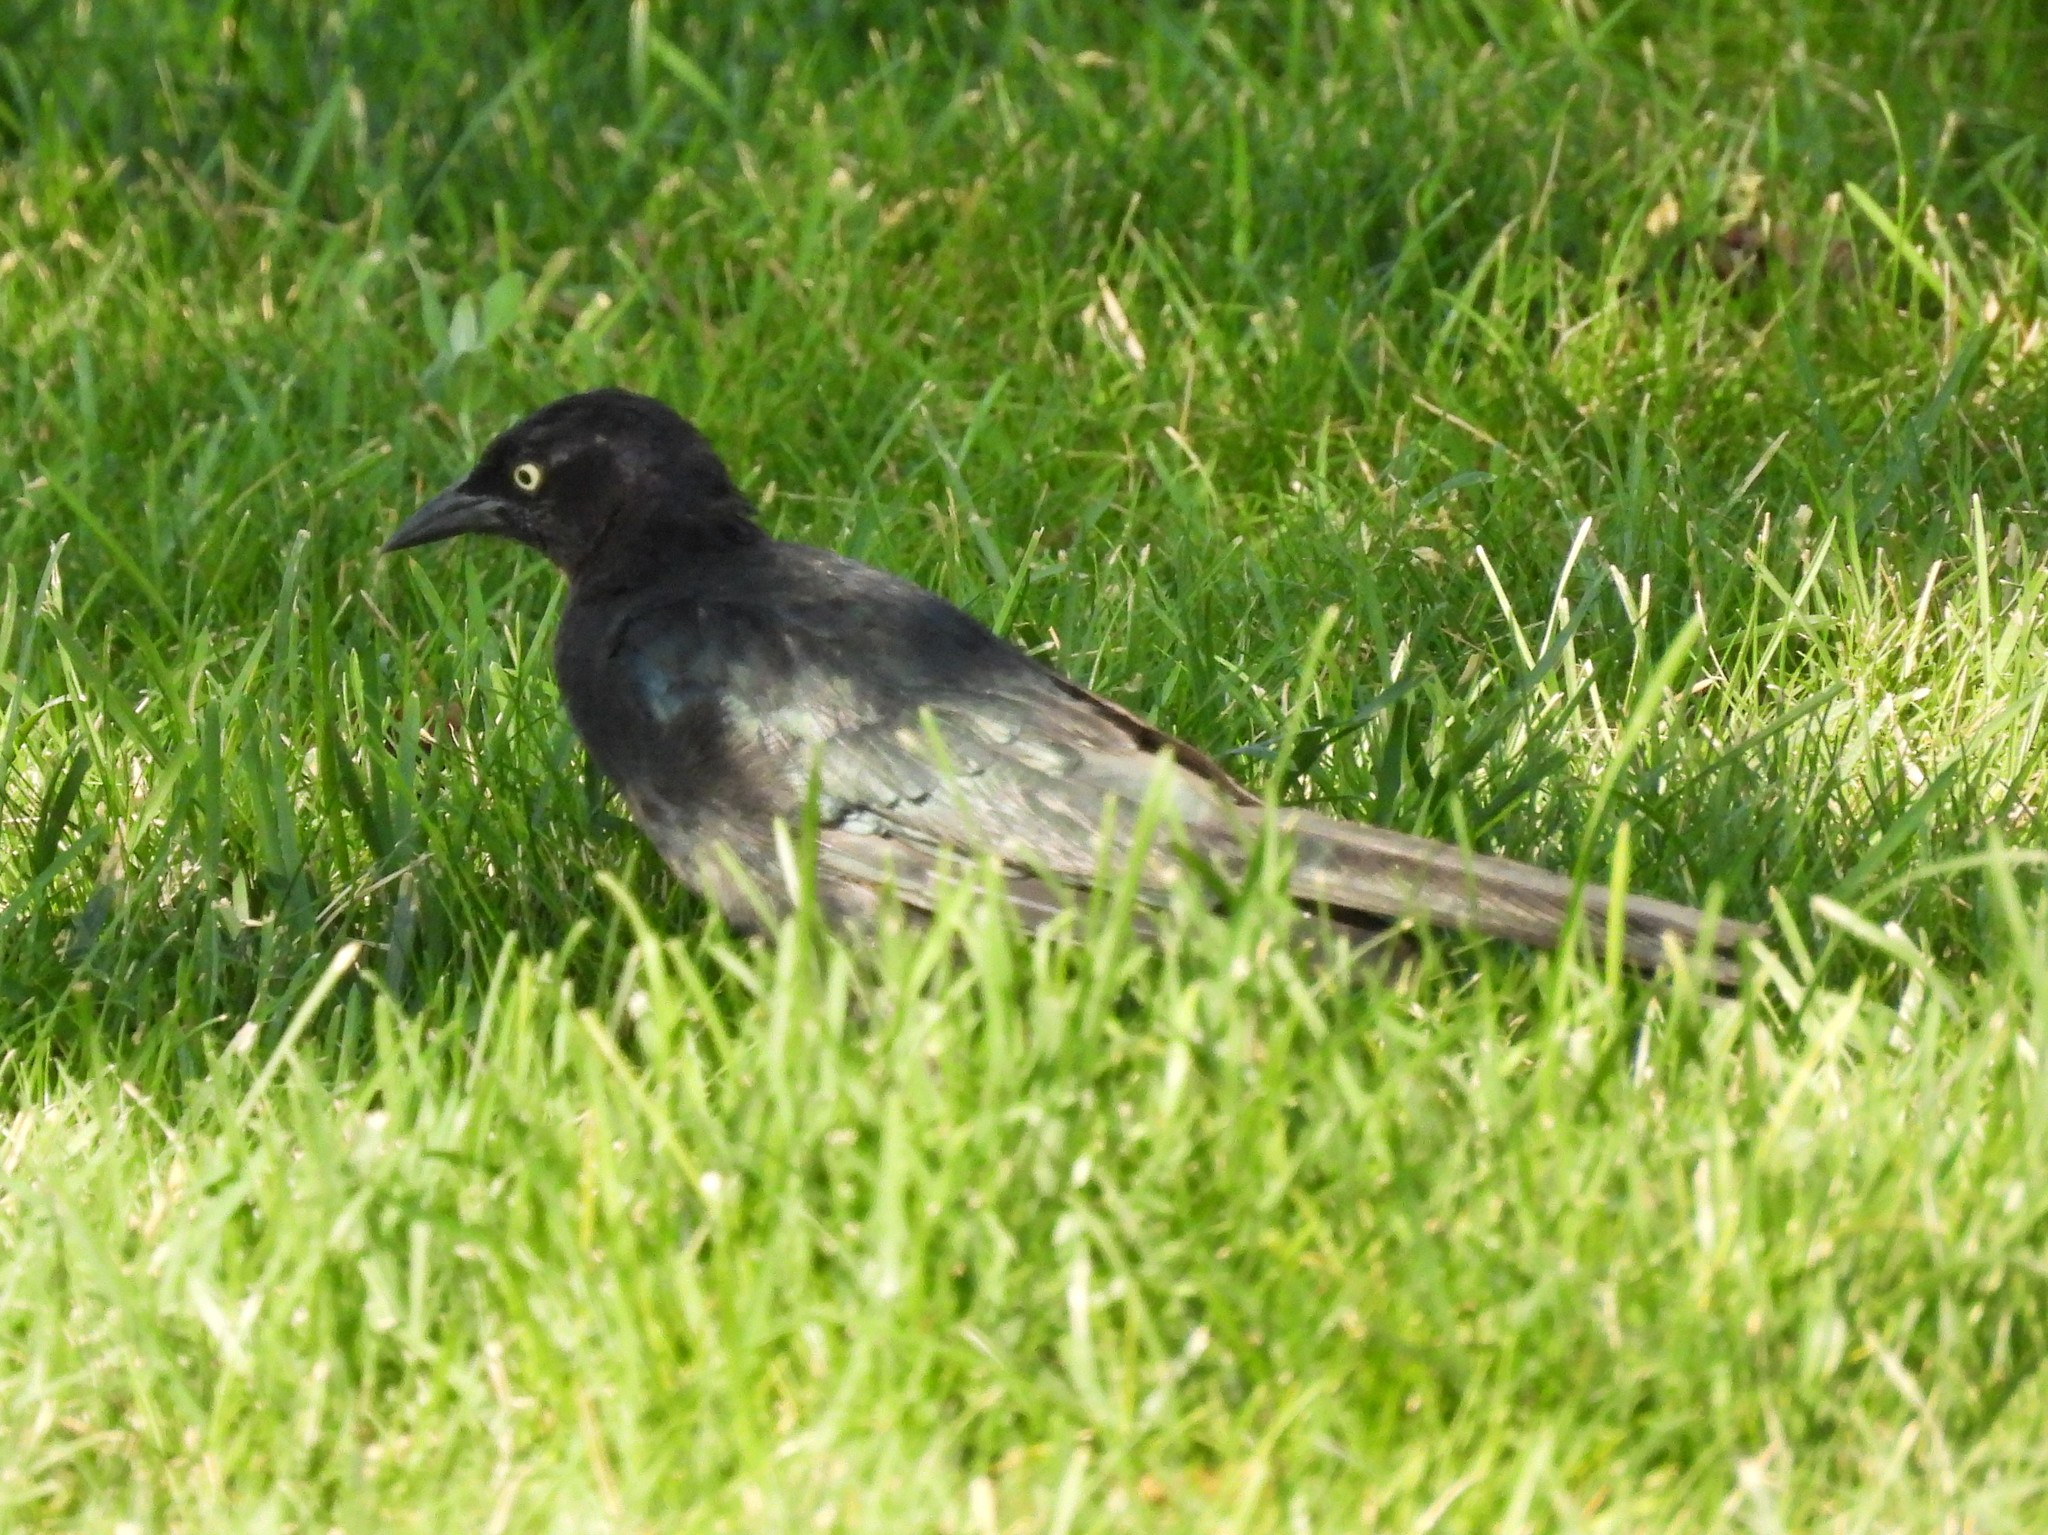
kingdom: Animalia
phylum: Chordata
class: Aves
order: Passeriformes
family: Icteridae
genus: Euphagus
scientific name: Euphagus cyanocephalus
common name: Brewer's blackbird
